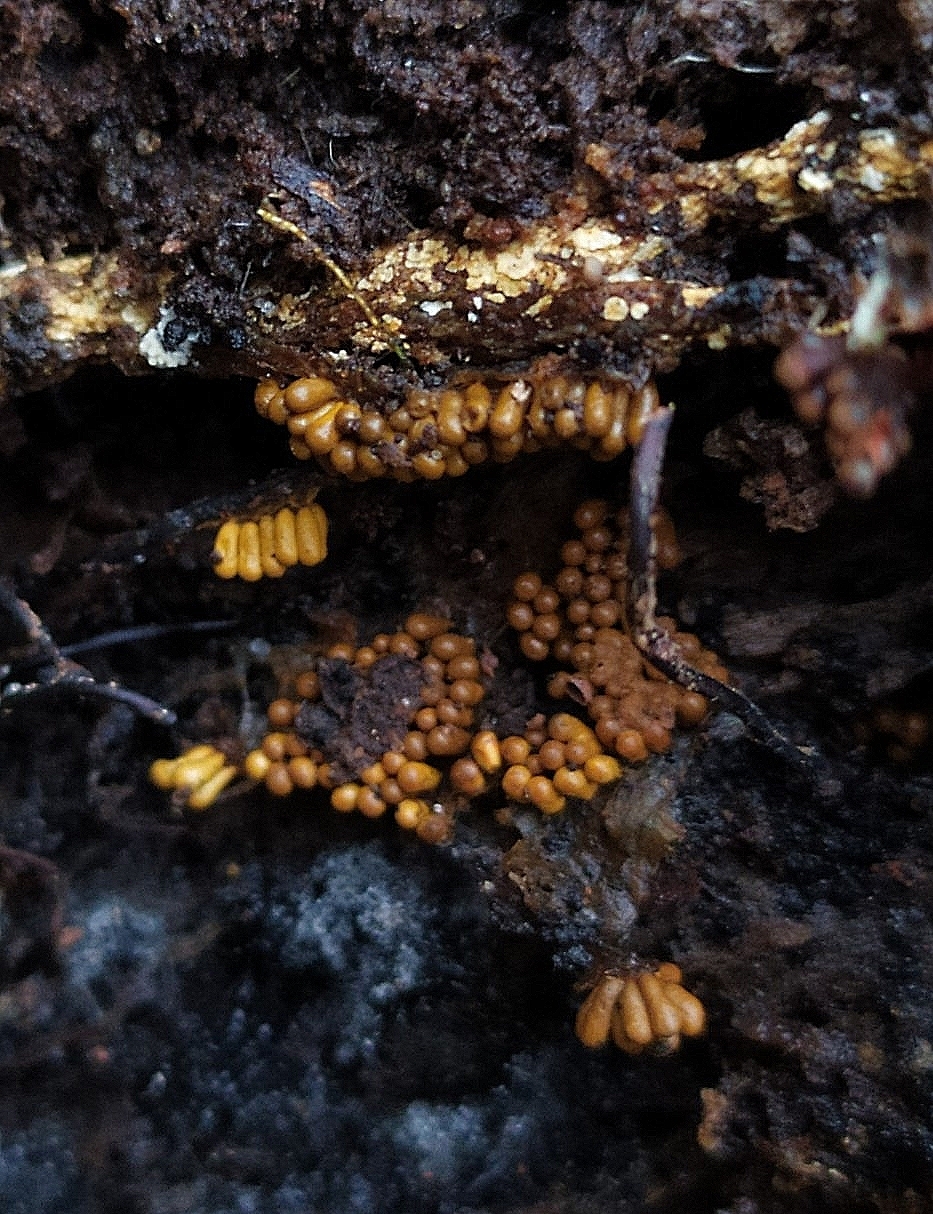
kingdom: Protozoa
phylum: Mycetozoa
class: Myxomycetes
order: Trichiales
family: Trichiaceae
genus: Oligonema
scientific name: Oligonema favogineum
